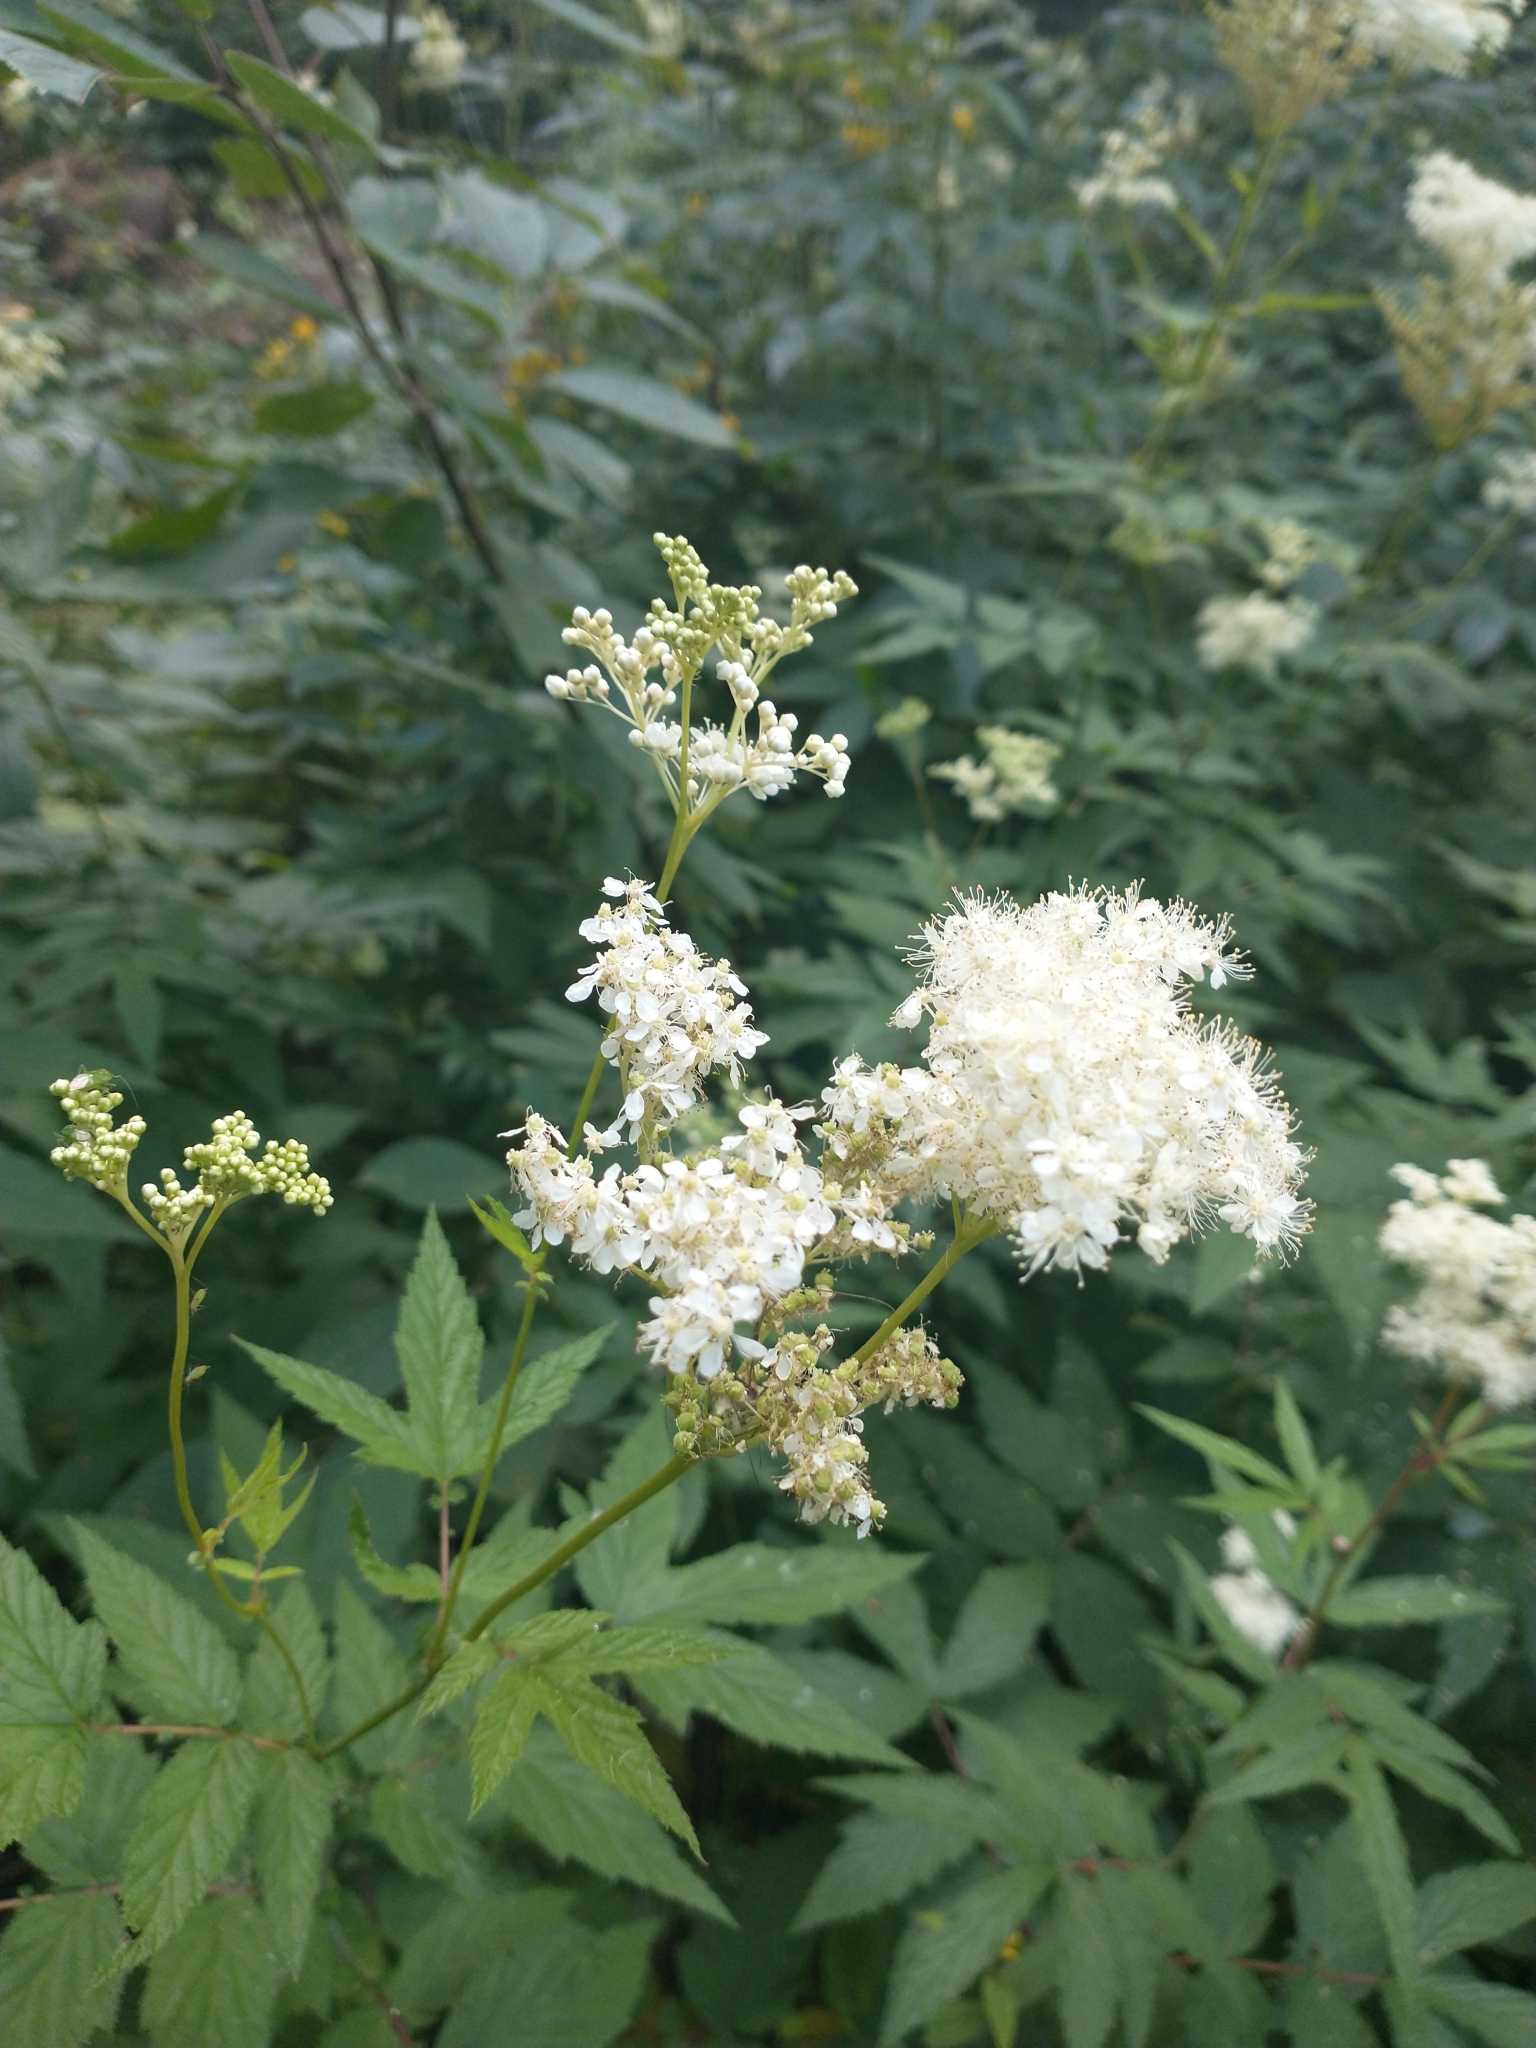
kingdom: Plantae
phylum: Tracheophyta
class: Magnoliopsida
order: Rosales
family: Rosaceae
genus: Filipendula
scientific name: Filipendula ulmaria
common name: Meadowsweet
